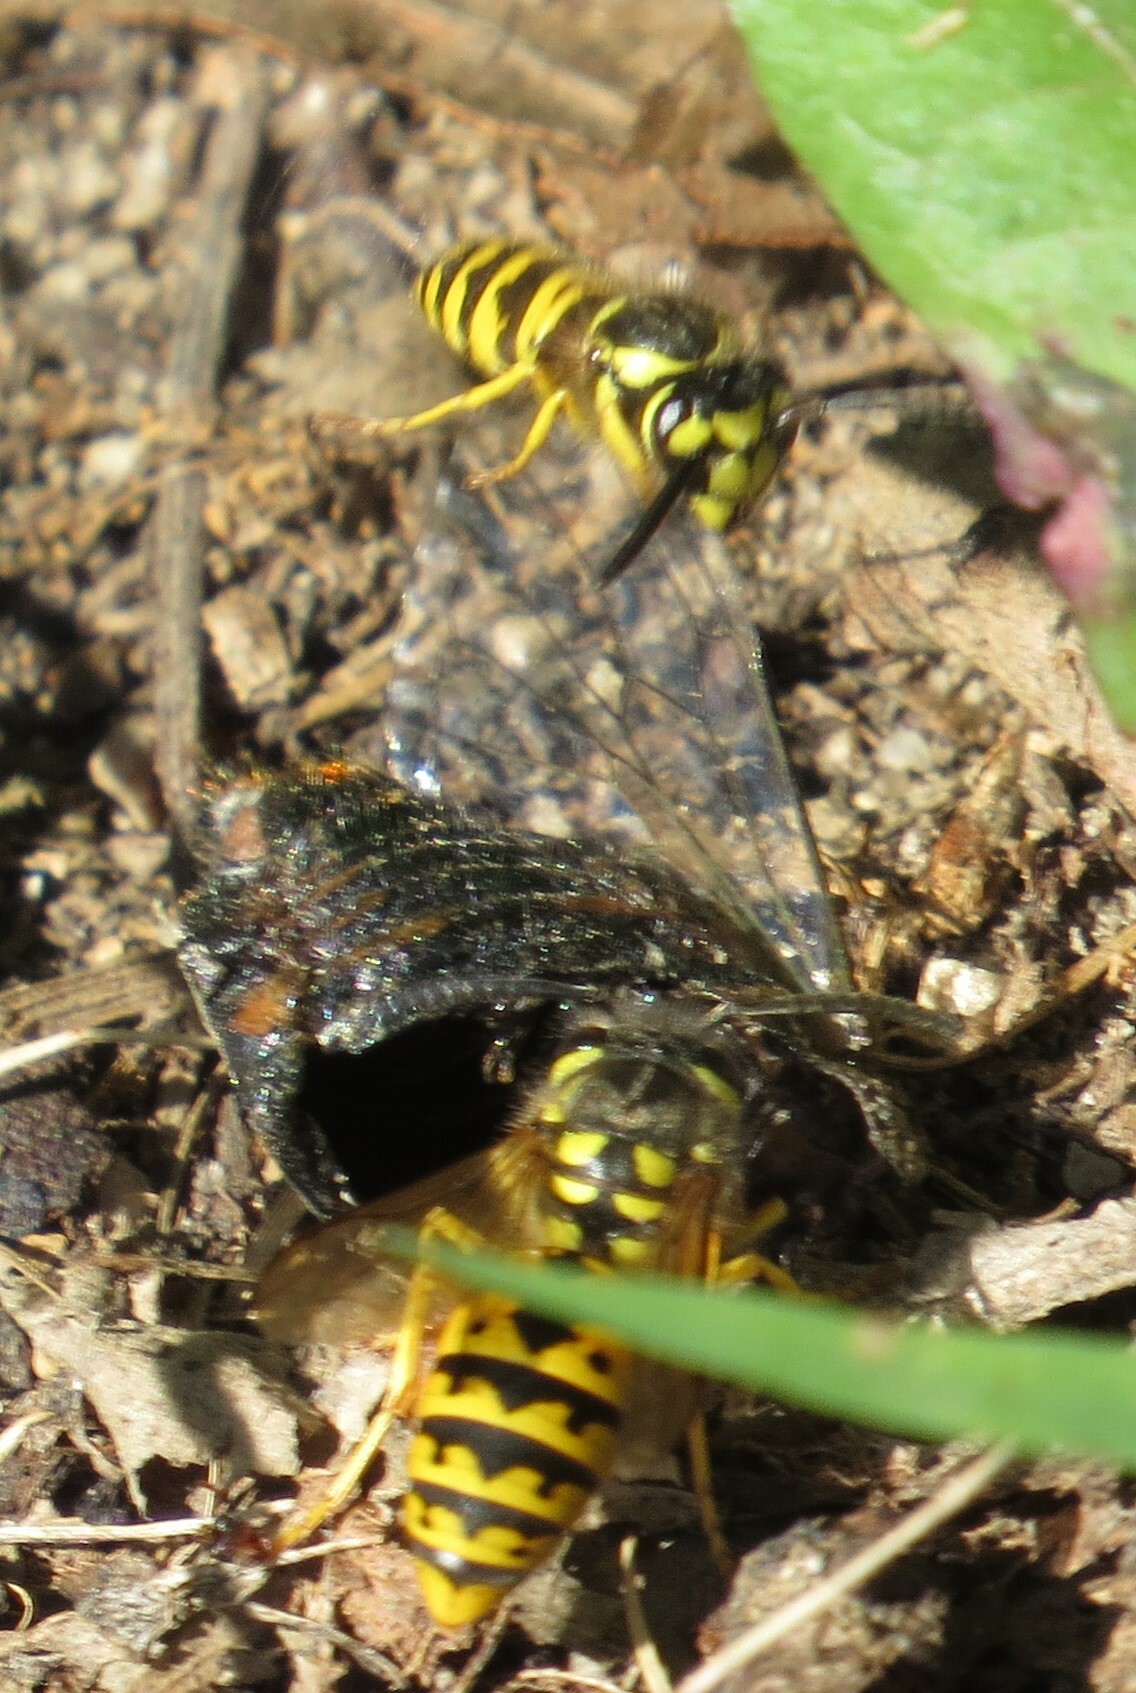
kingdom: Animalia
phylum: Arthropoda
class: Insecta
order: Hymenoptera
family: Vespidae
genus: Vespula
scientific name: Vespula germanica
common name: German wasp
